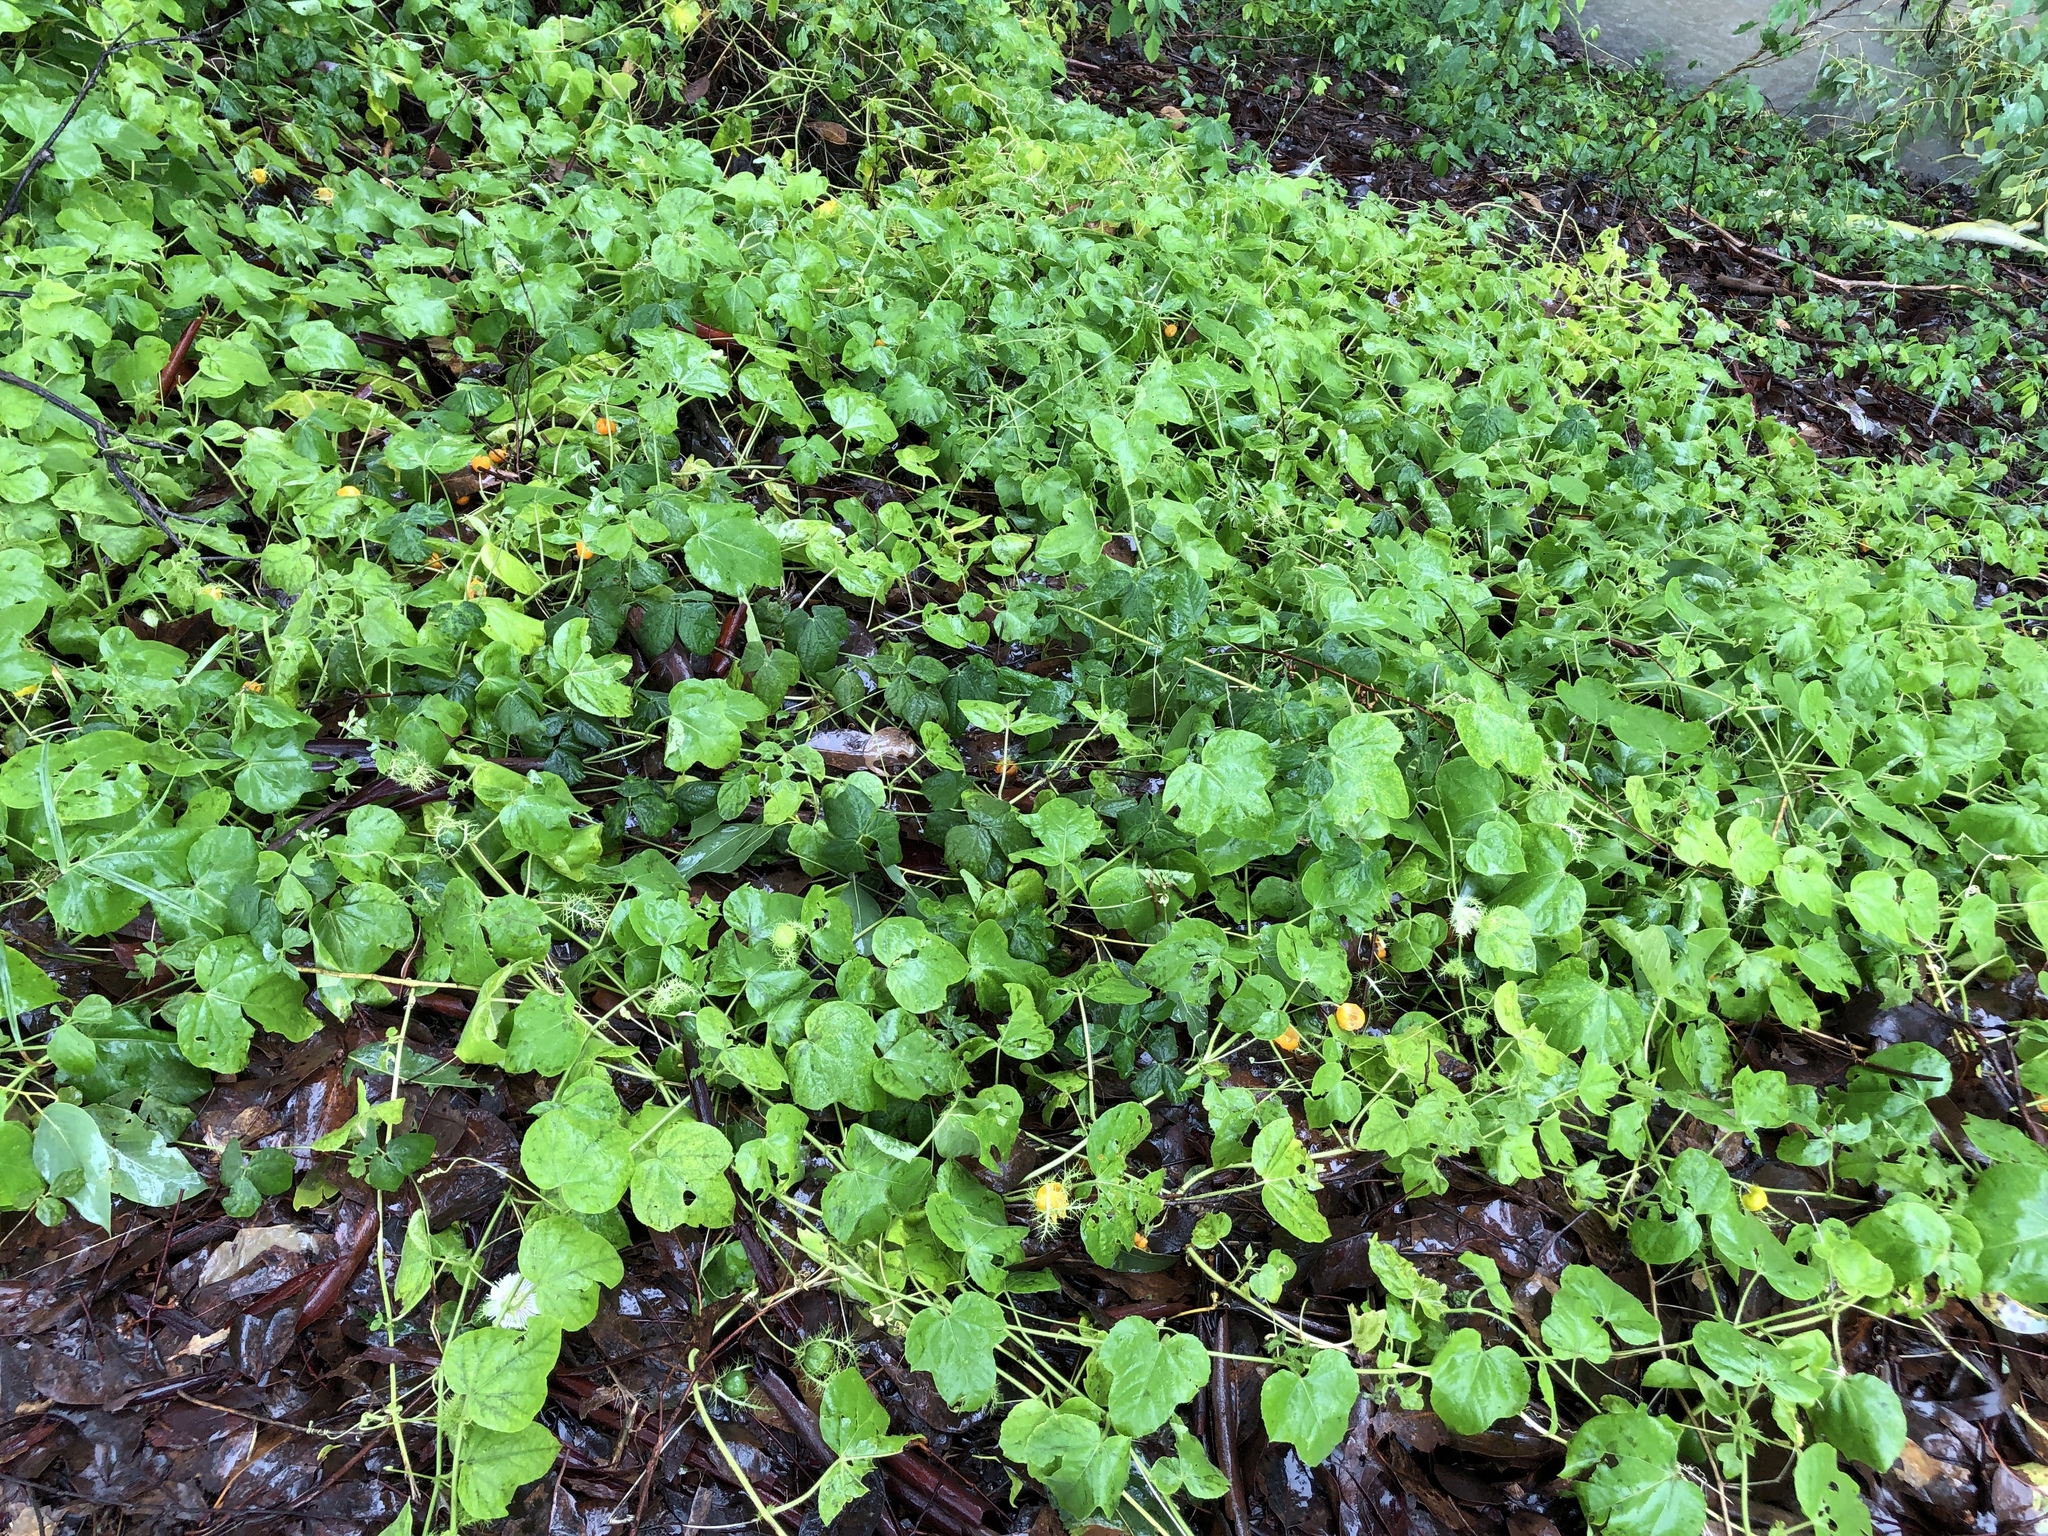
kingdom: Plantae
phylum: Tracheophyta
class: Magnoliopsida
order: Malpighiales
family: Passifloraceae
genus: Passiflora
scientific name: Passiflora foetida
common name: Fetid passionflower
